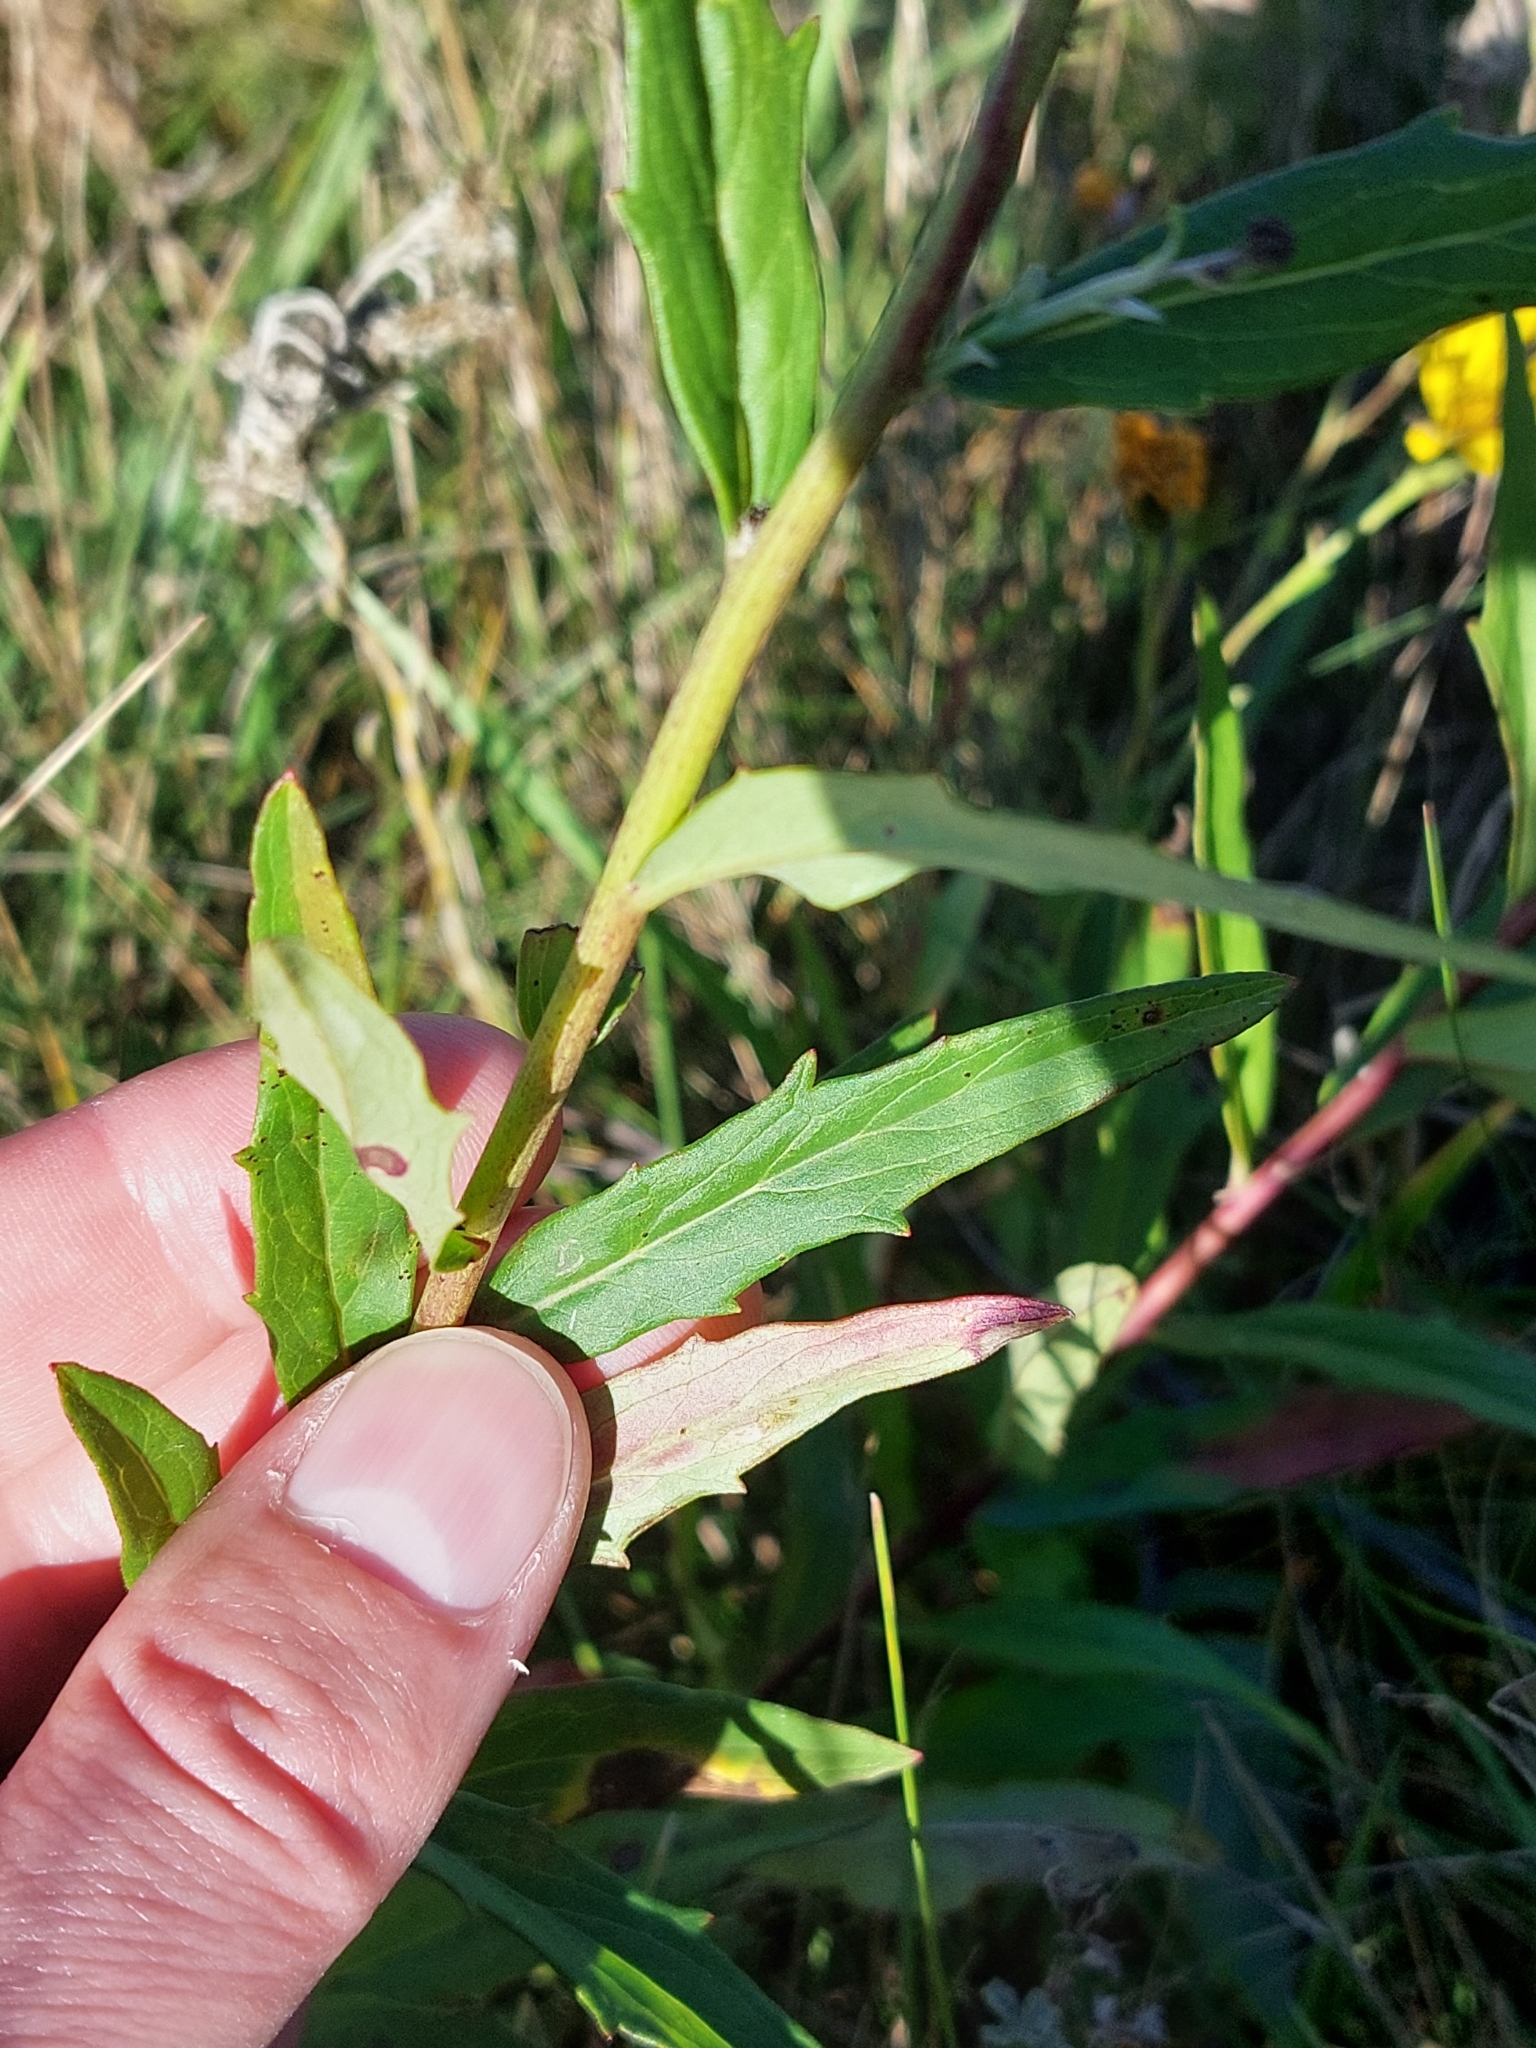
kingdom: Plantae
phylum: Tracheophyta
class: Magnoliopsida
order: Asterales
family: Asteraceae
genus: Hieracium
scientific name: Hieracium umbellatum
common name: Northern hawkweed
